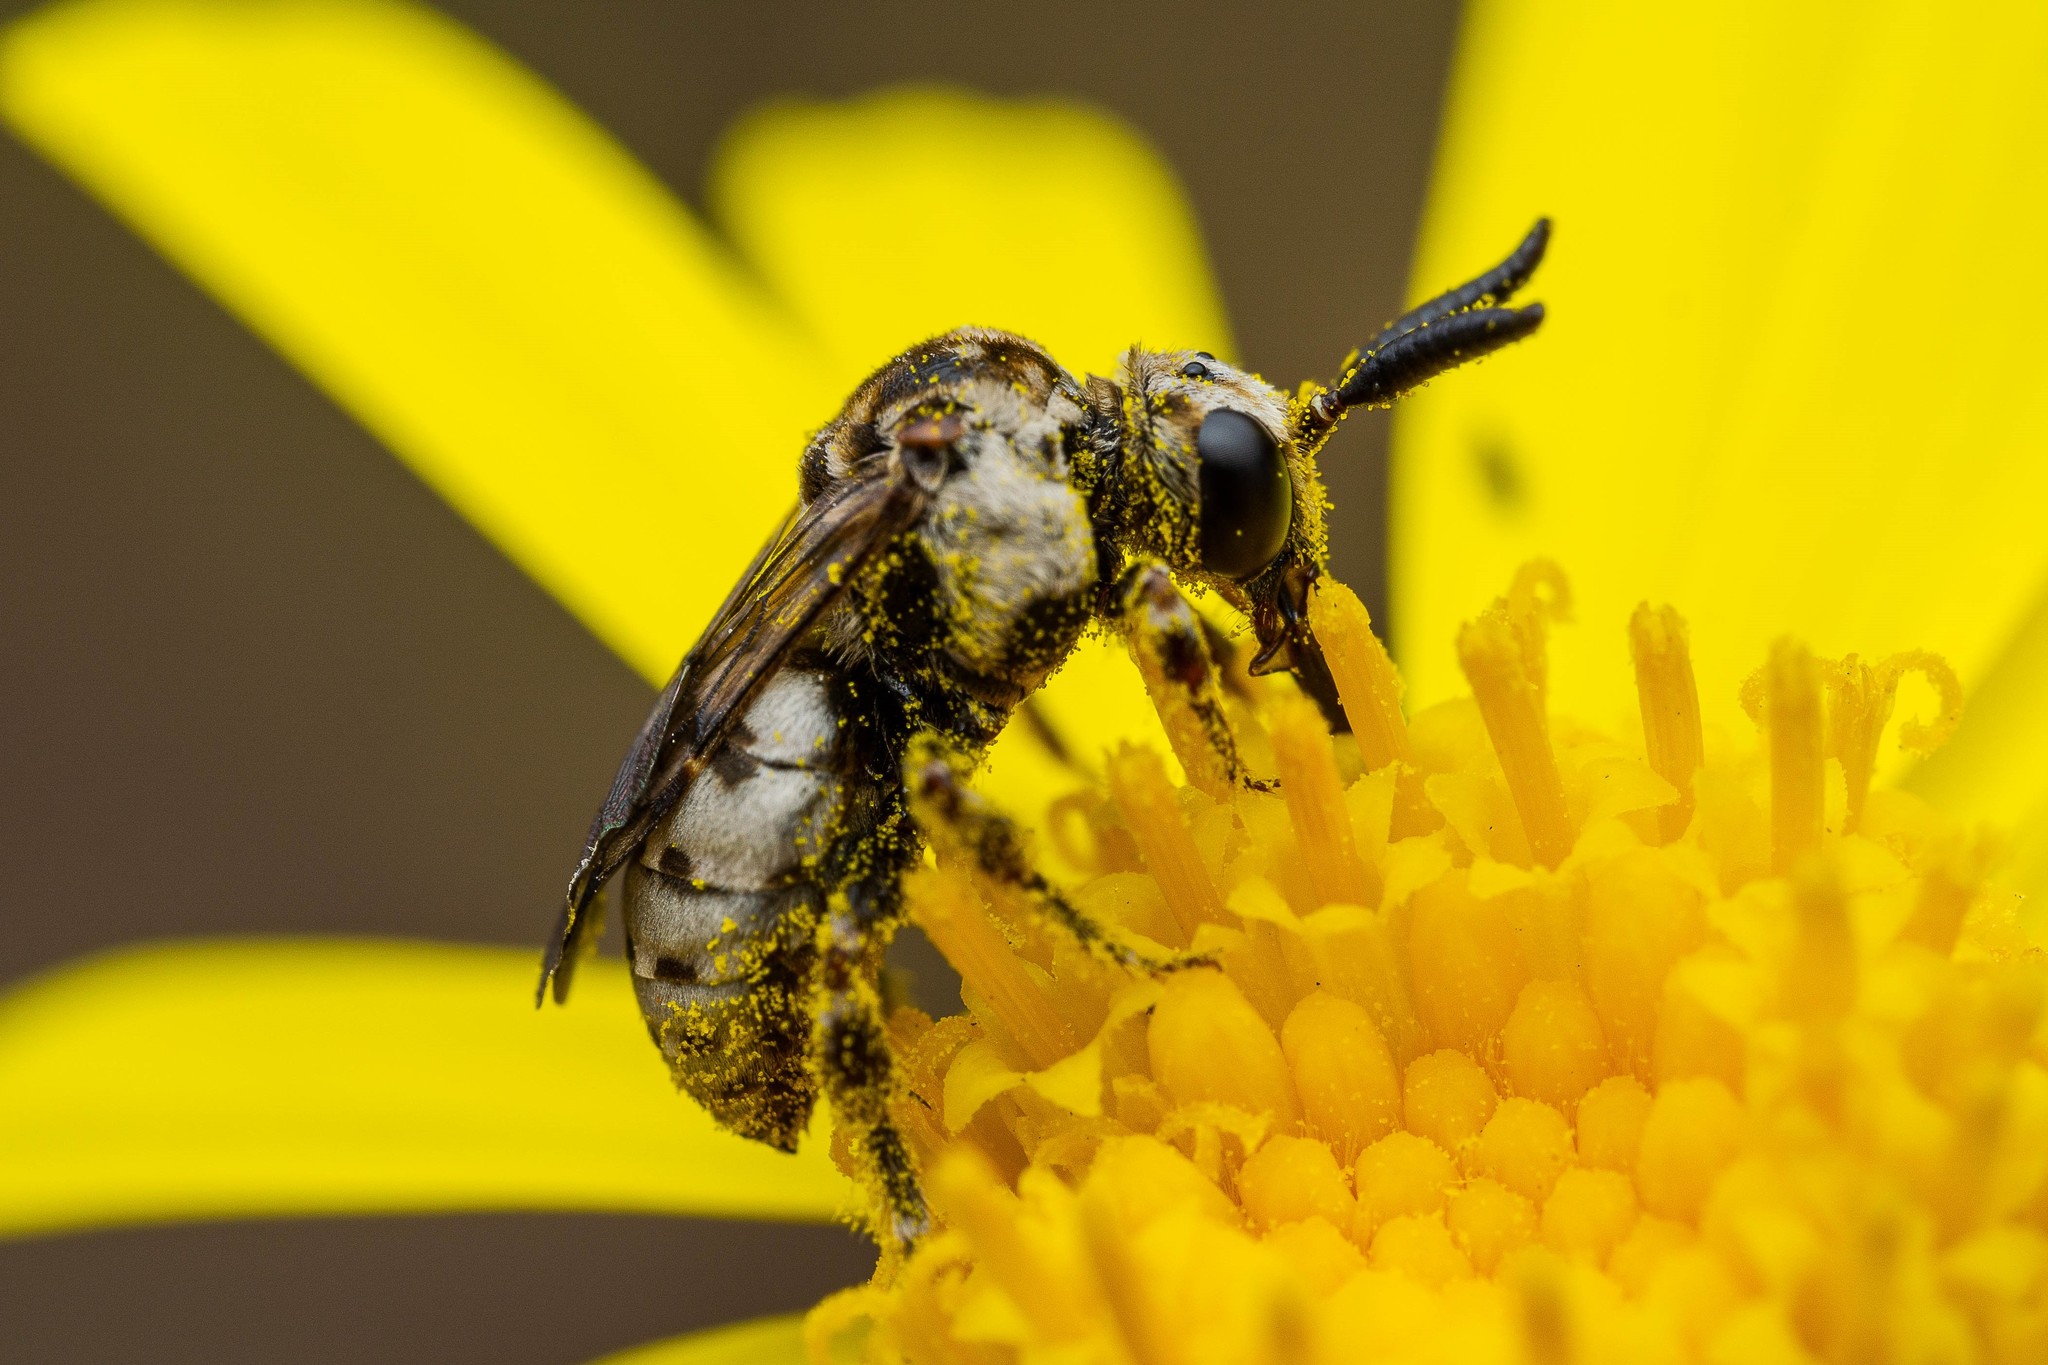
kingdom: Animalia
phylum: Arthropoda
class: Insecta
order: Hymenoptera
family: Apidae
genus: Zacosmia
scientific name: Zacosmia maculata
